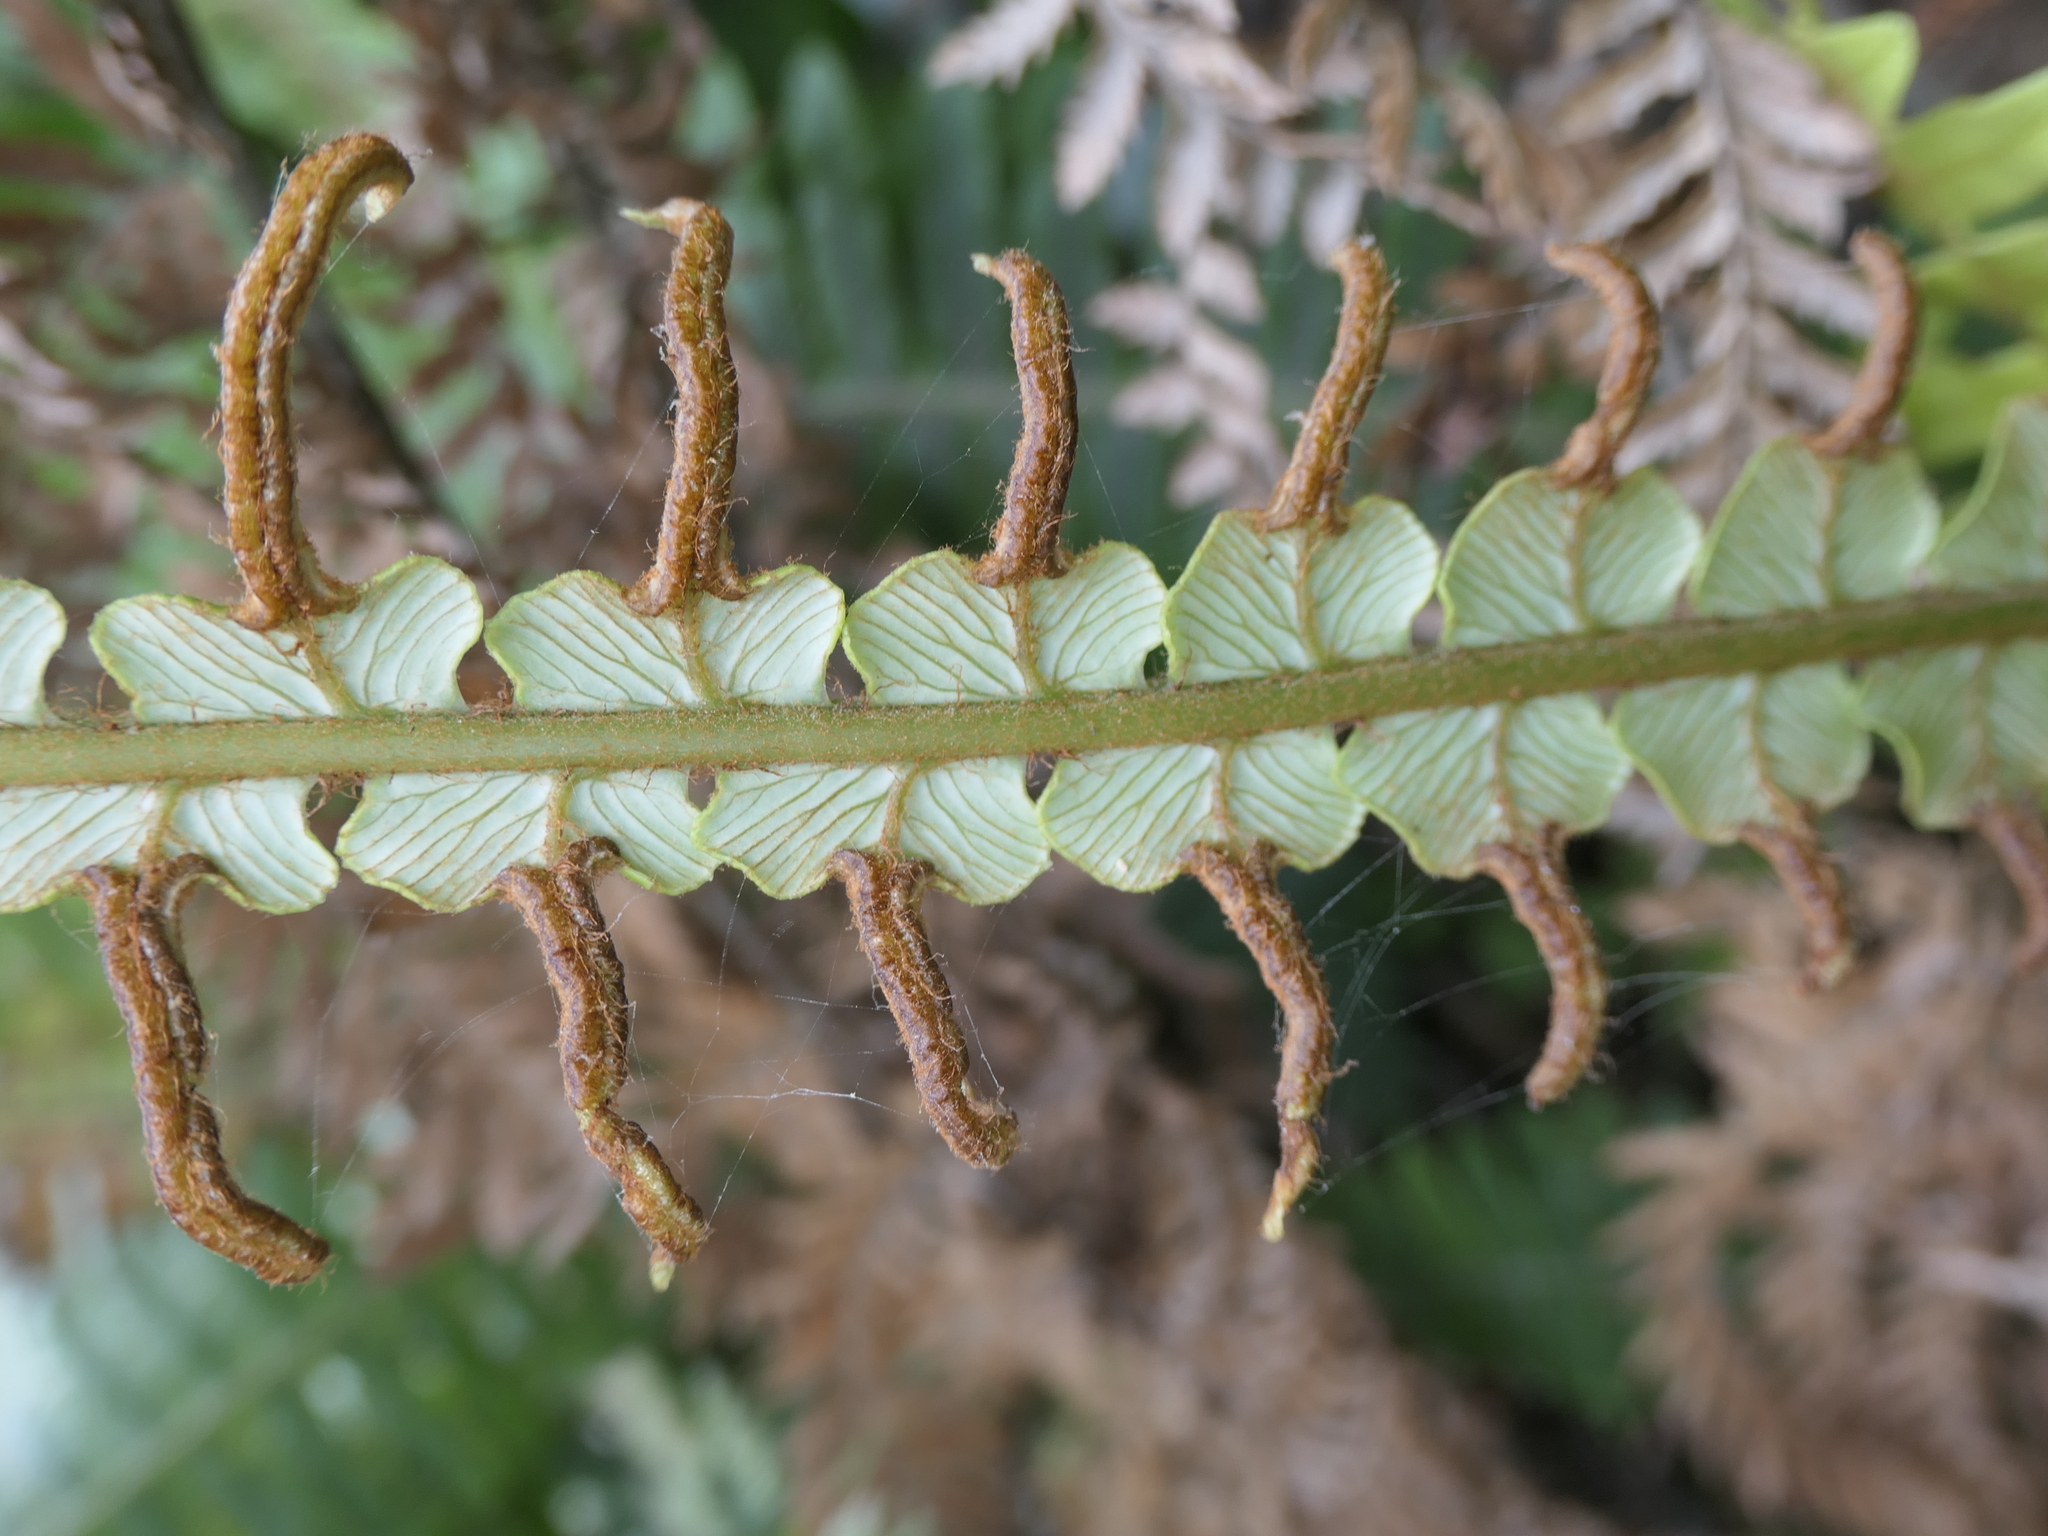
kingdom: Plantae
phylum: Tracheophyta
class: Polypodiopsida
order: Polypodiales
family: Blechnaceae
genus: Lomaria
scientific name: Lomaria discolor
